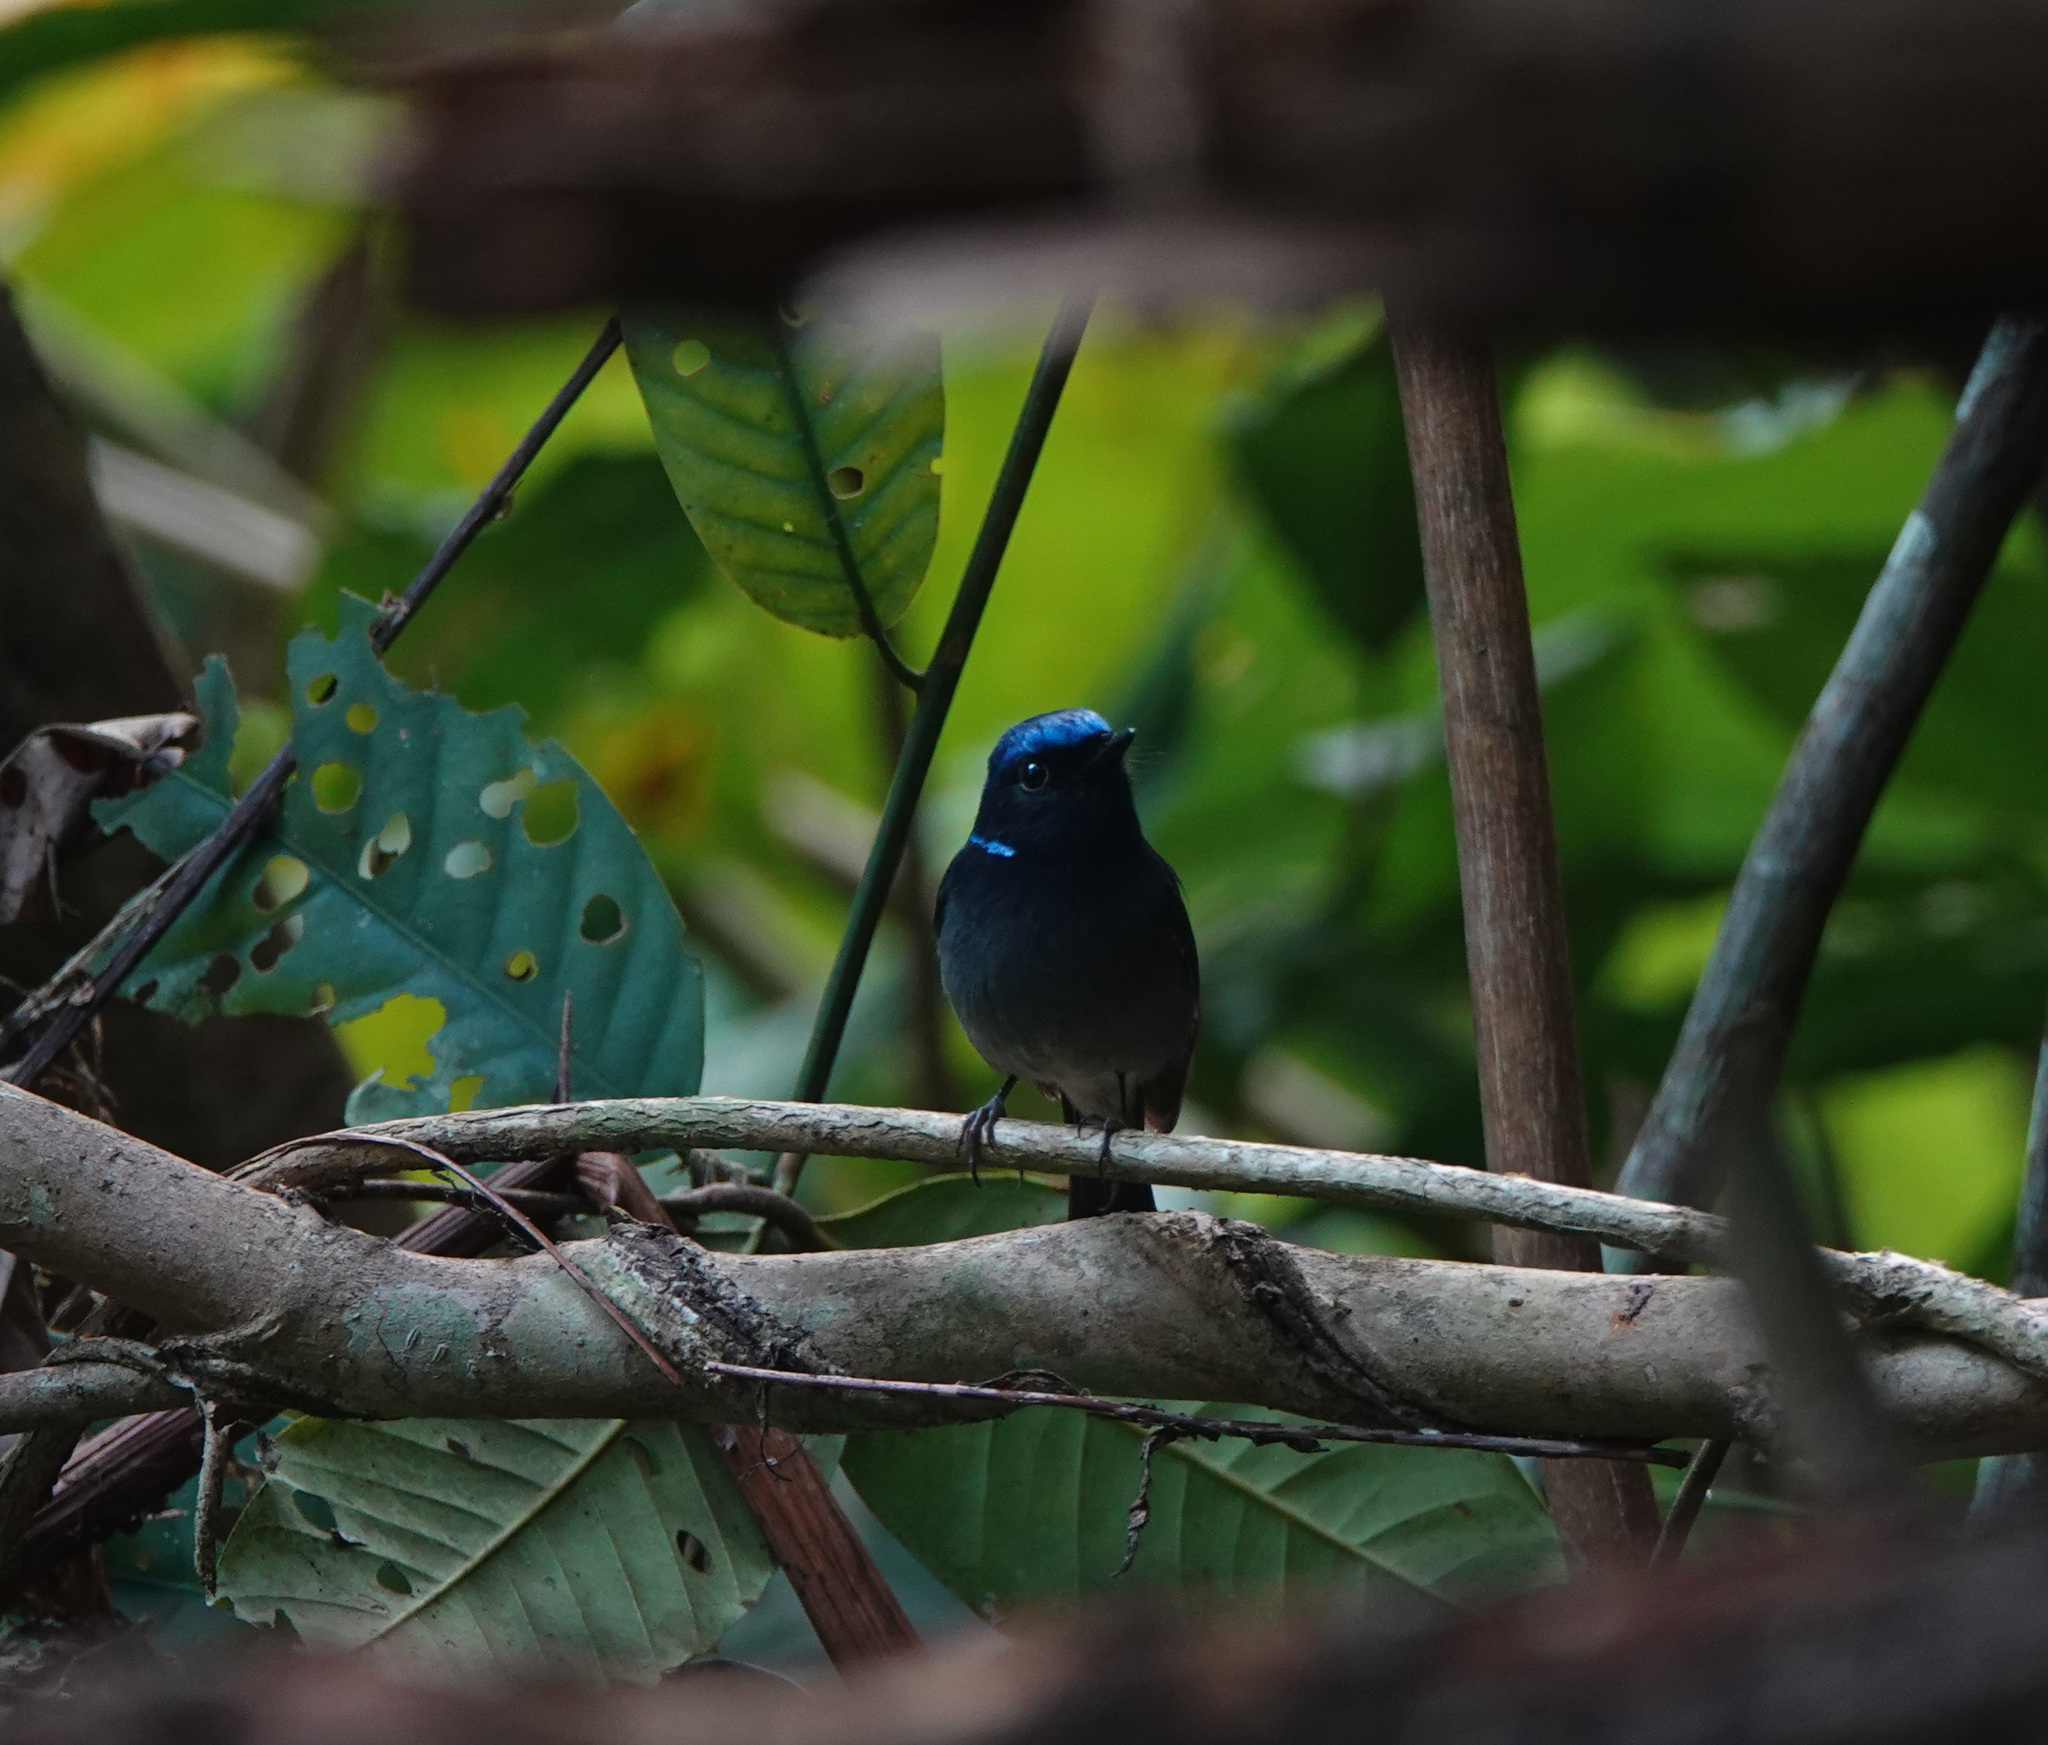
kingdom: Animalia
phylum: Chordata
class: Aves
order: Passeriformes
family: Muscicapidae
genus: Niltava
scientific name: Niltava macgrigoriae
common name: Small niltava
